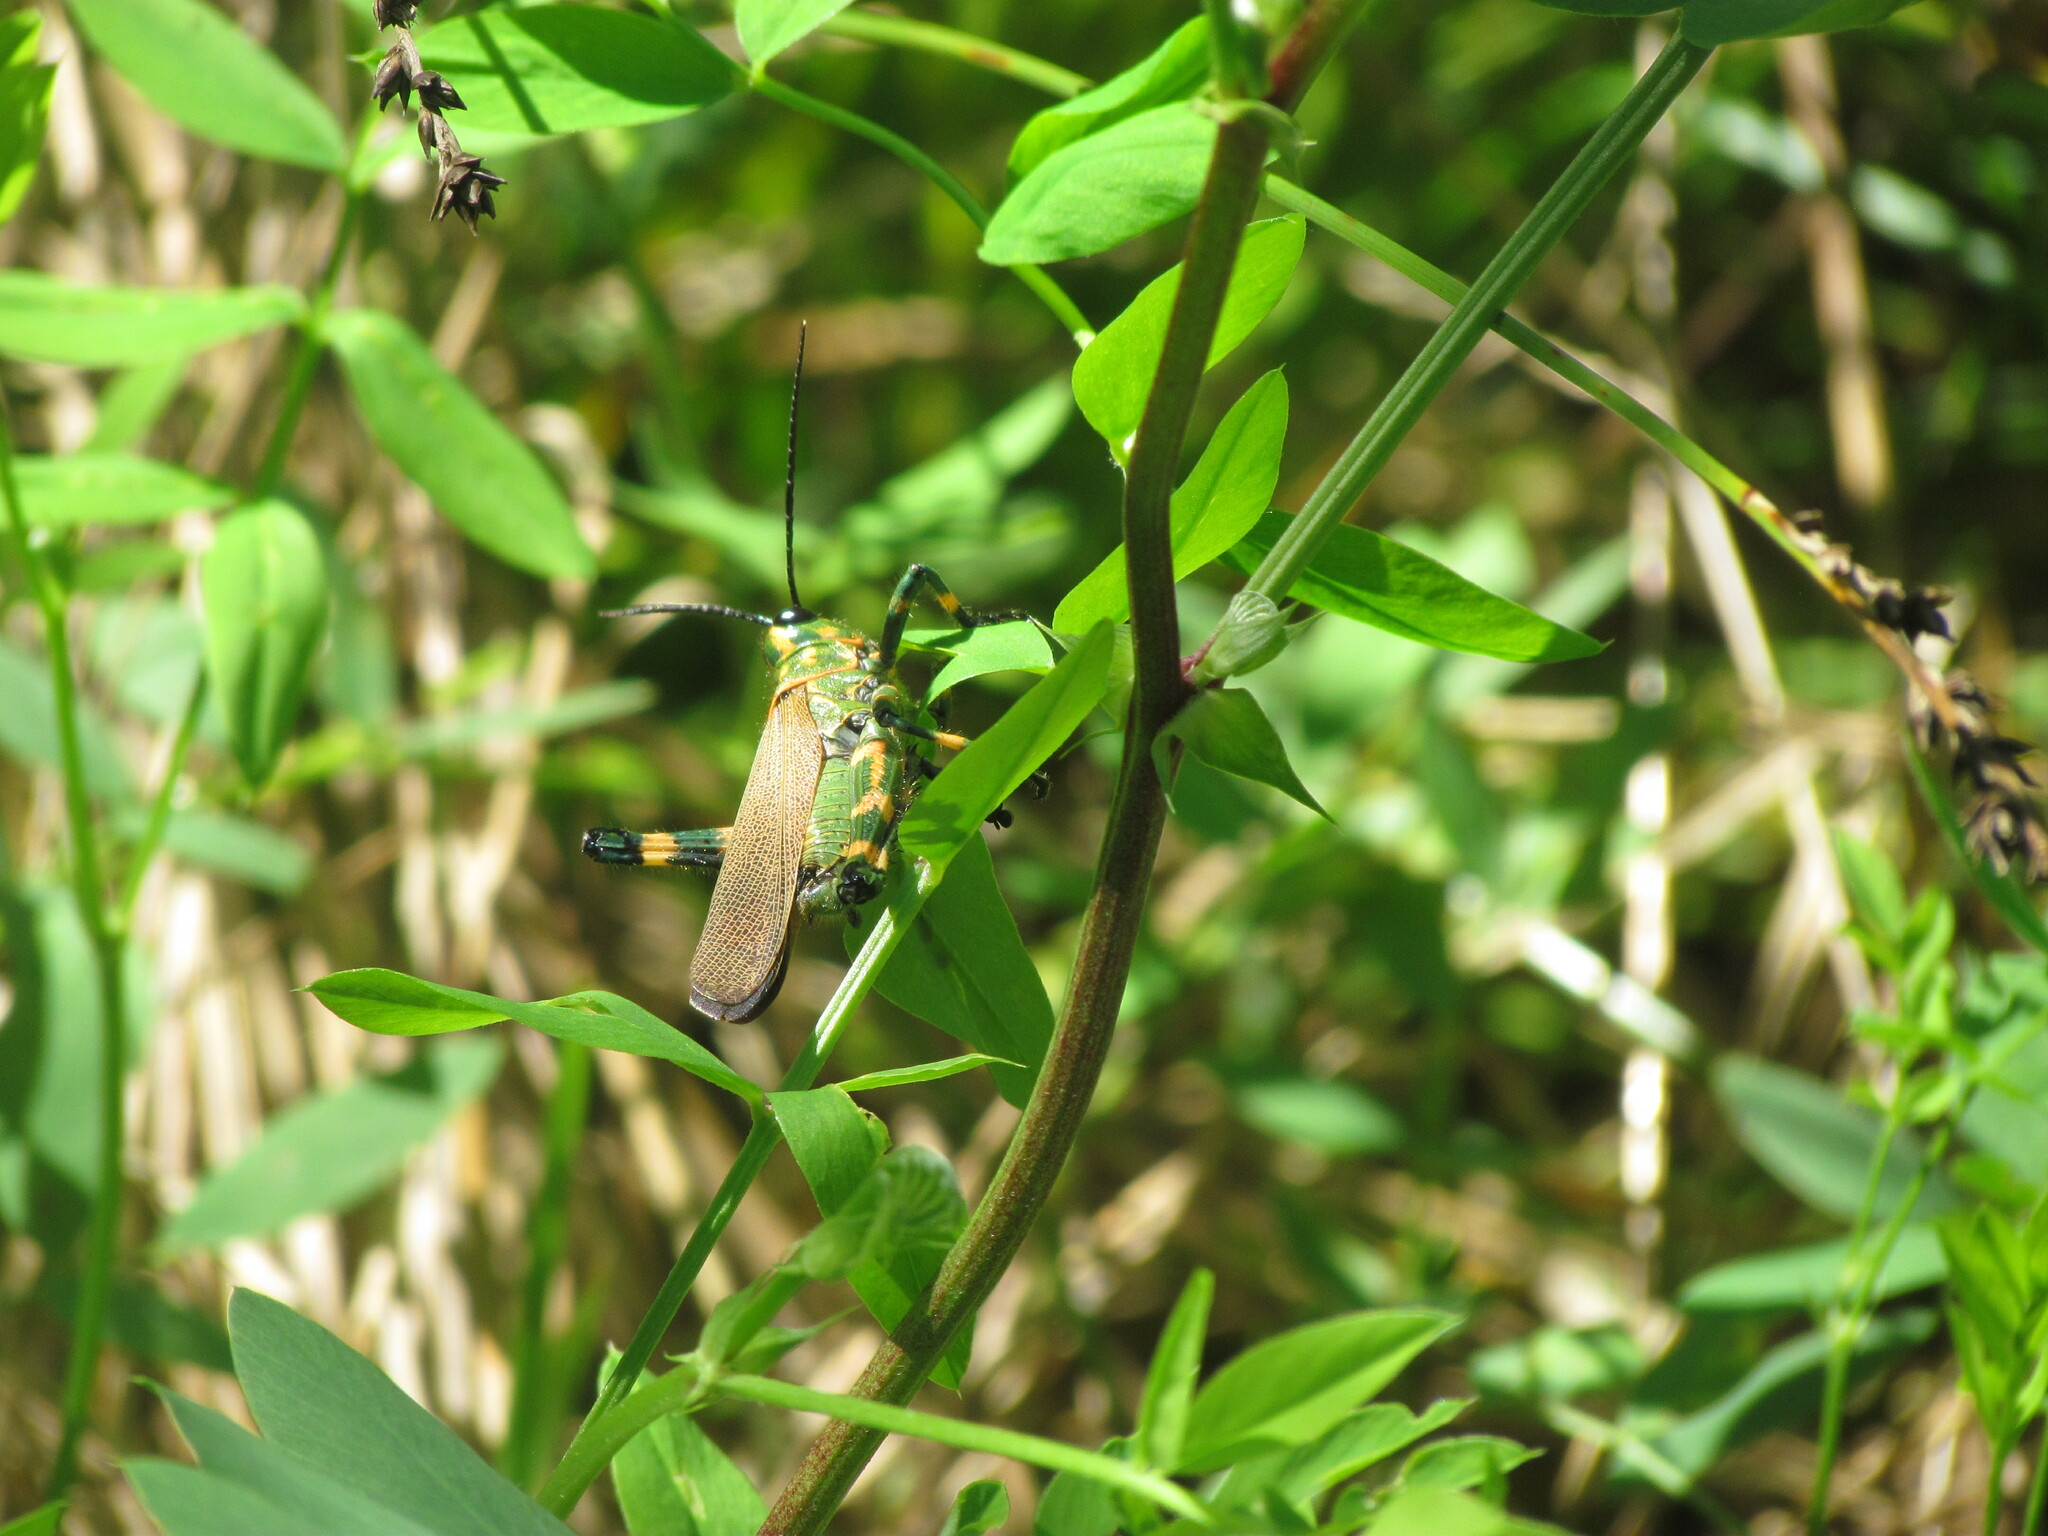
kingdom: Animalia
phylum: Arthropoda
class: Insecta
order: Orthoptera
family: Romaleidae
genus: Chromacris
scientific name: Chromacris speciosa
